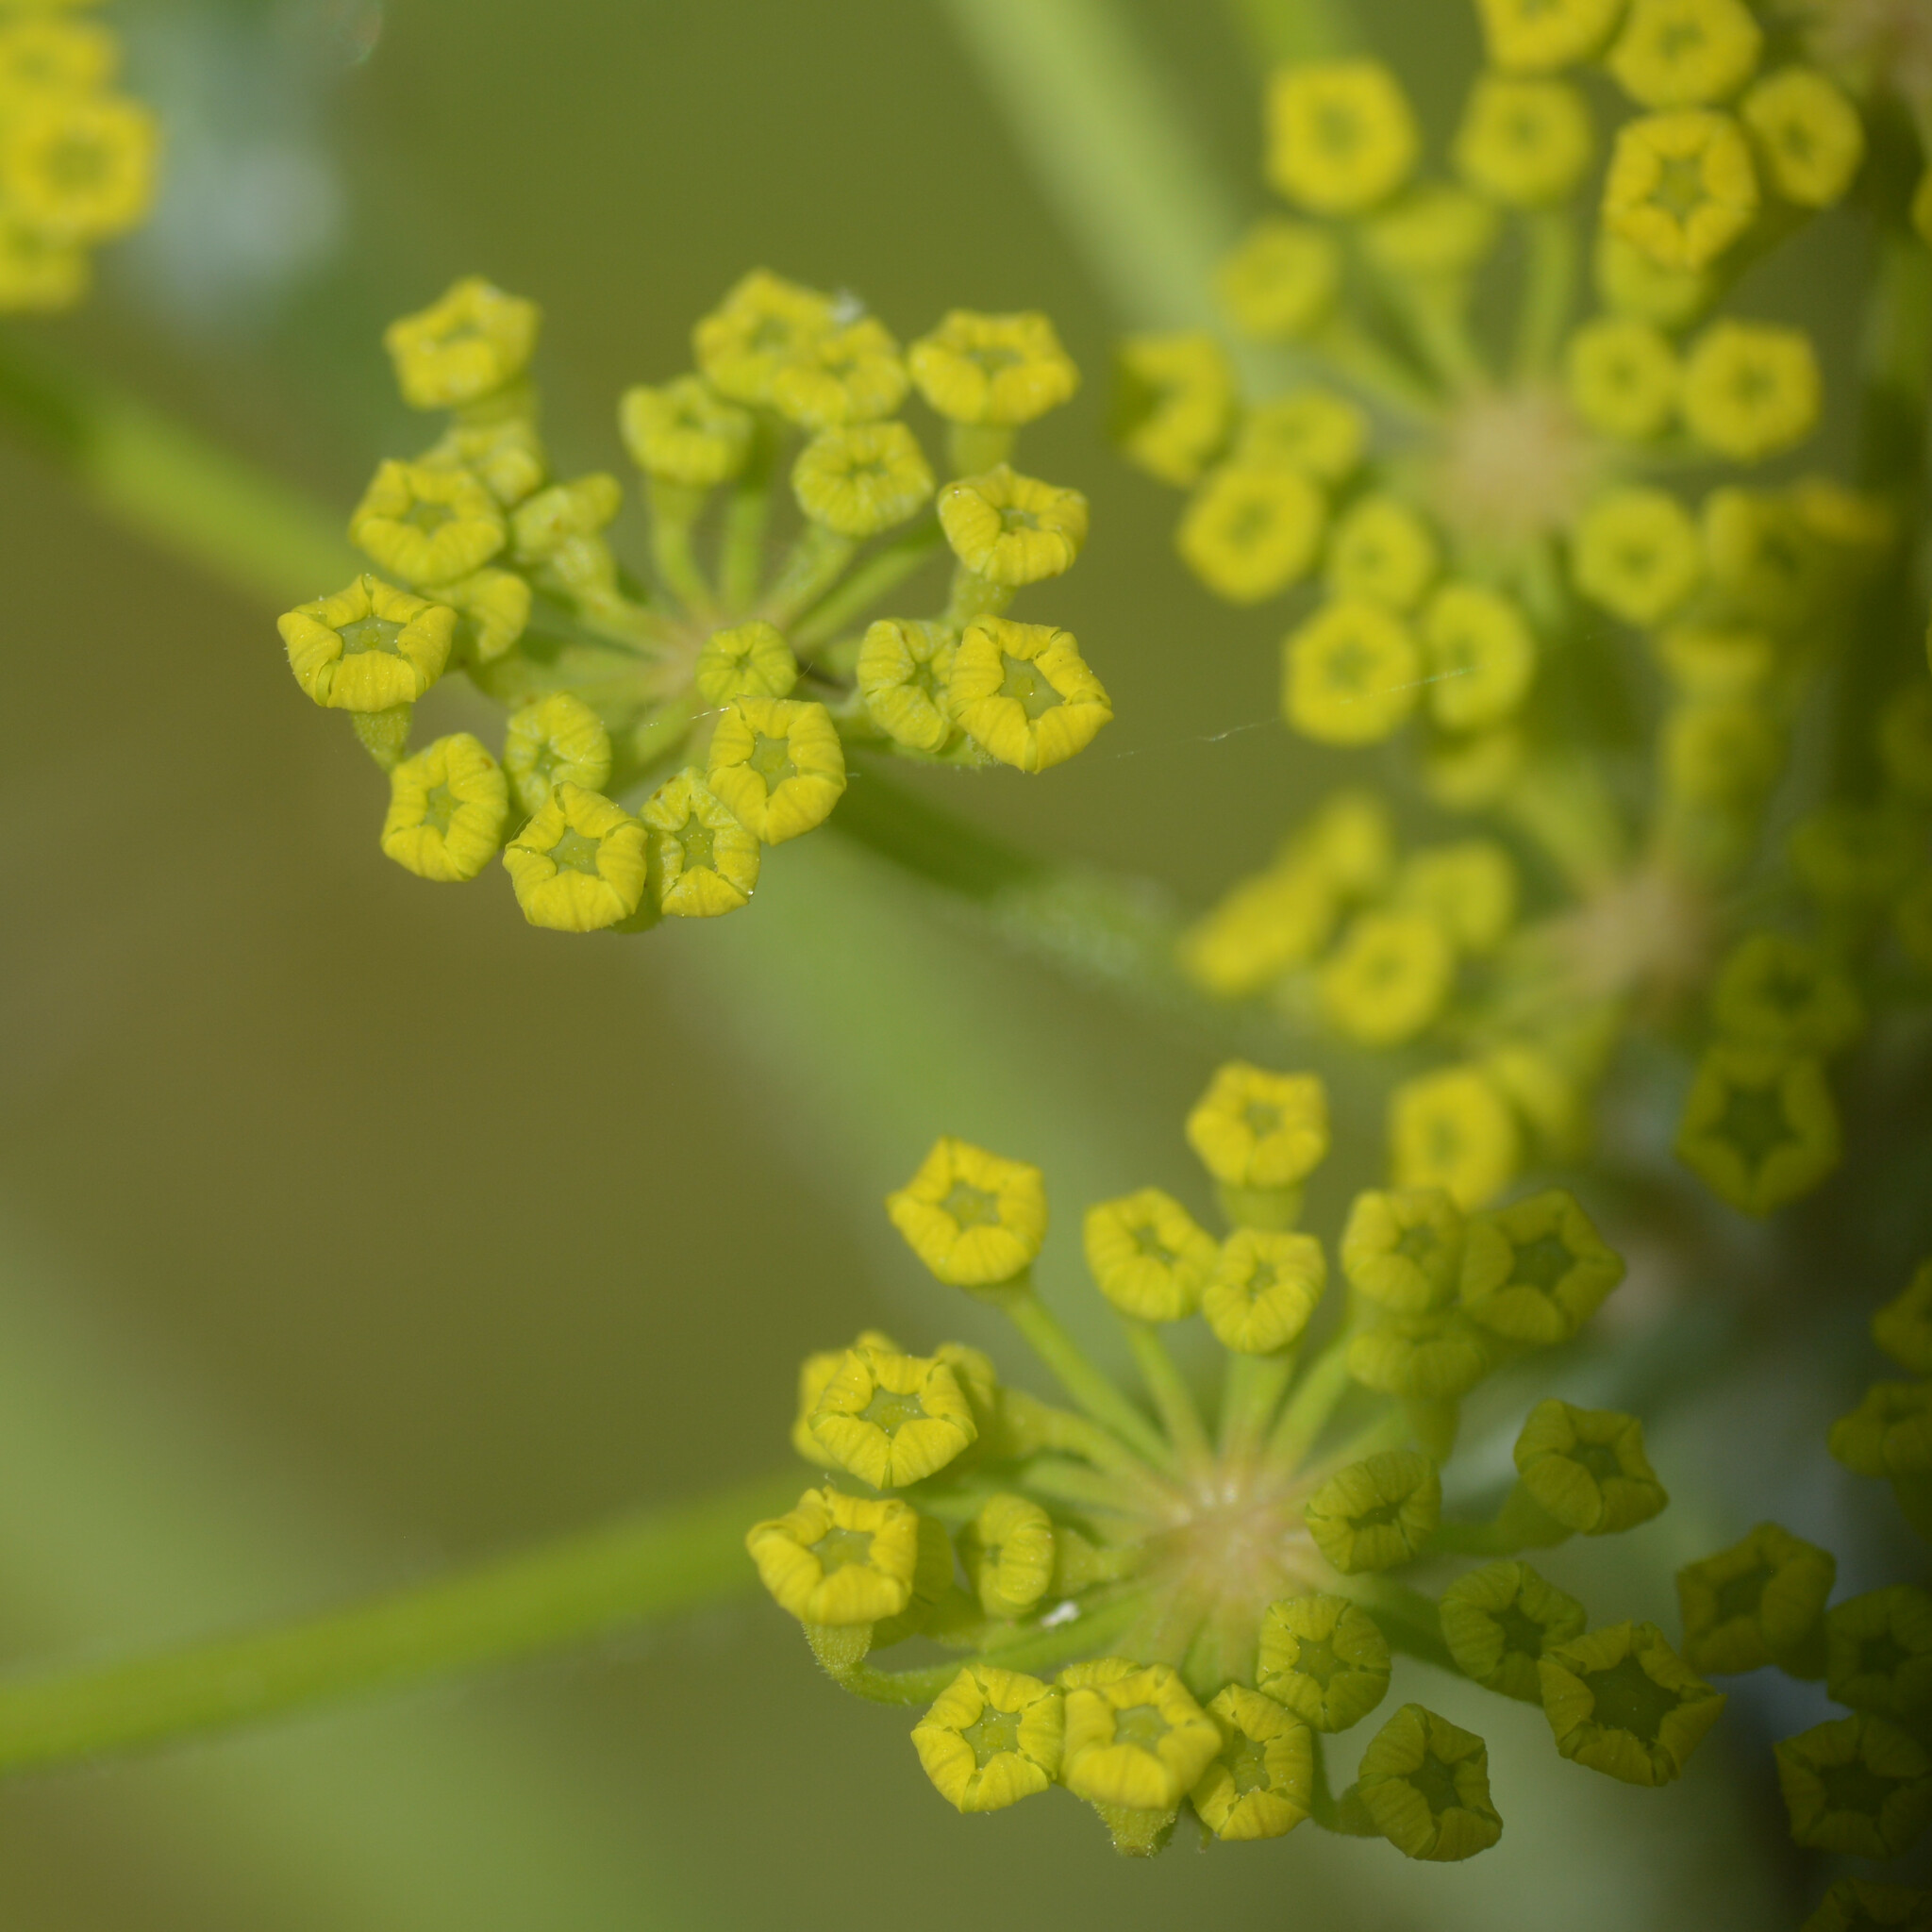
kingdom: Plantae
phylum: Tracheophyta
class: Magnoliopsida
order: Apiales
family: Apiaceae
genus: Pastinaca
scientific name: Pastinaca sativa
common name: Wild parsnip
